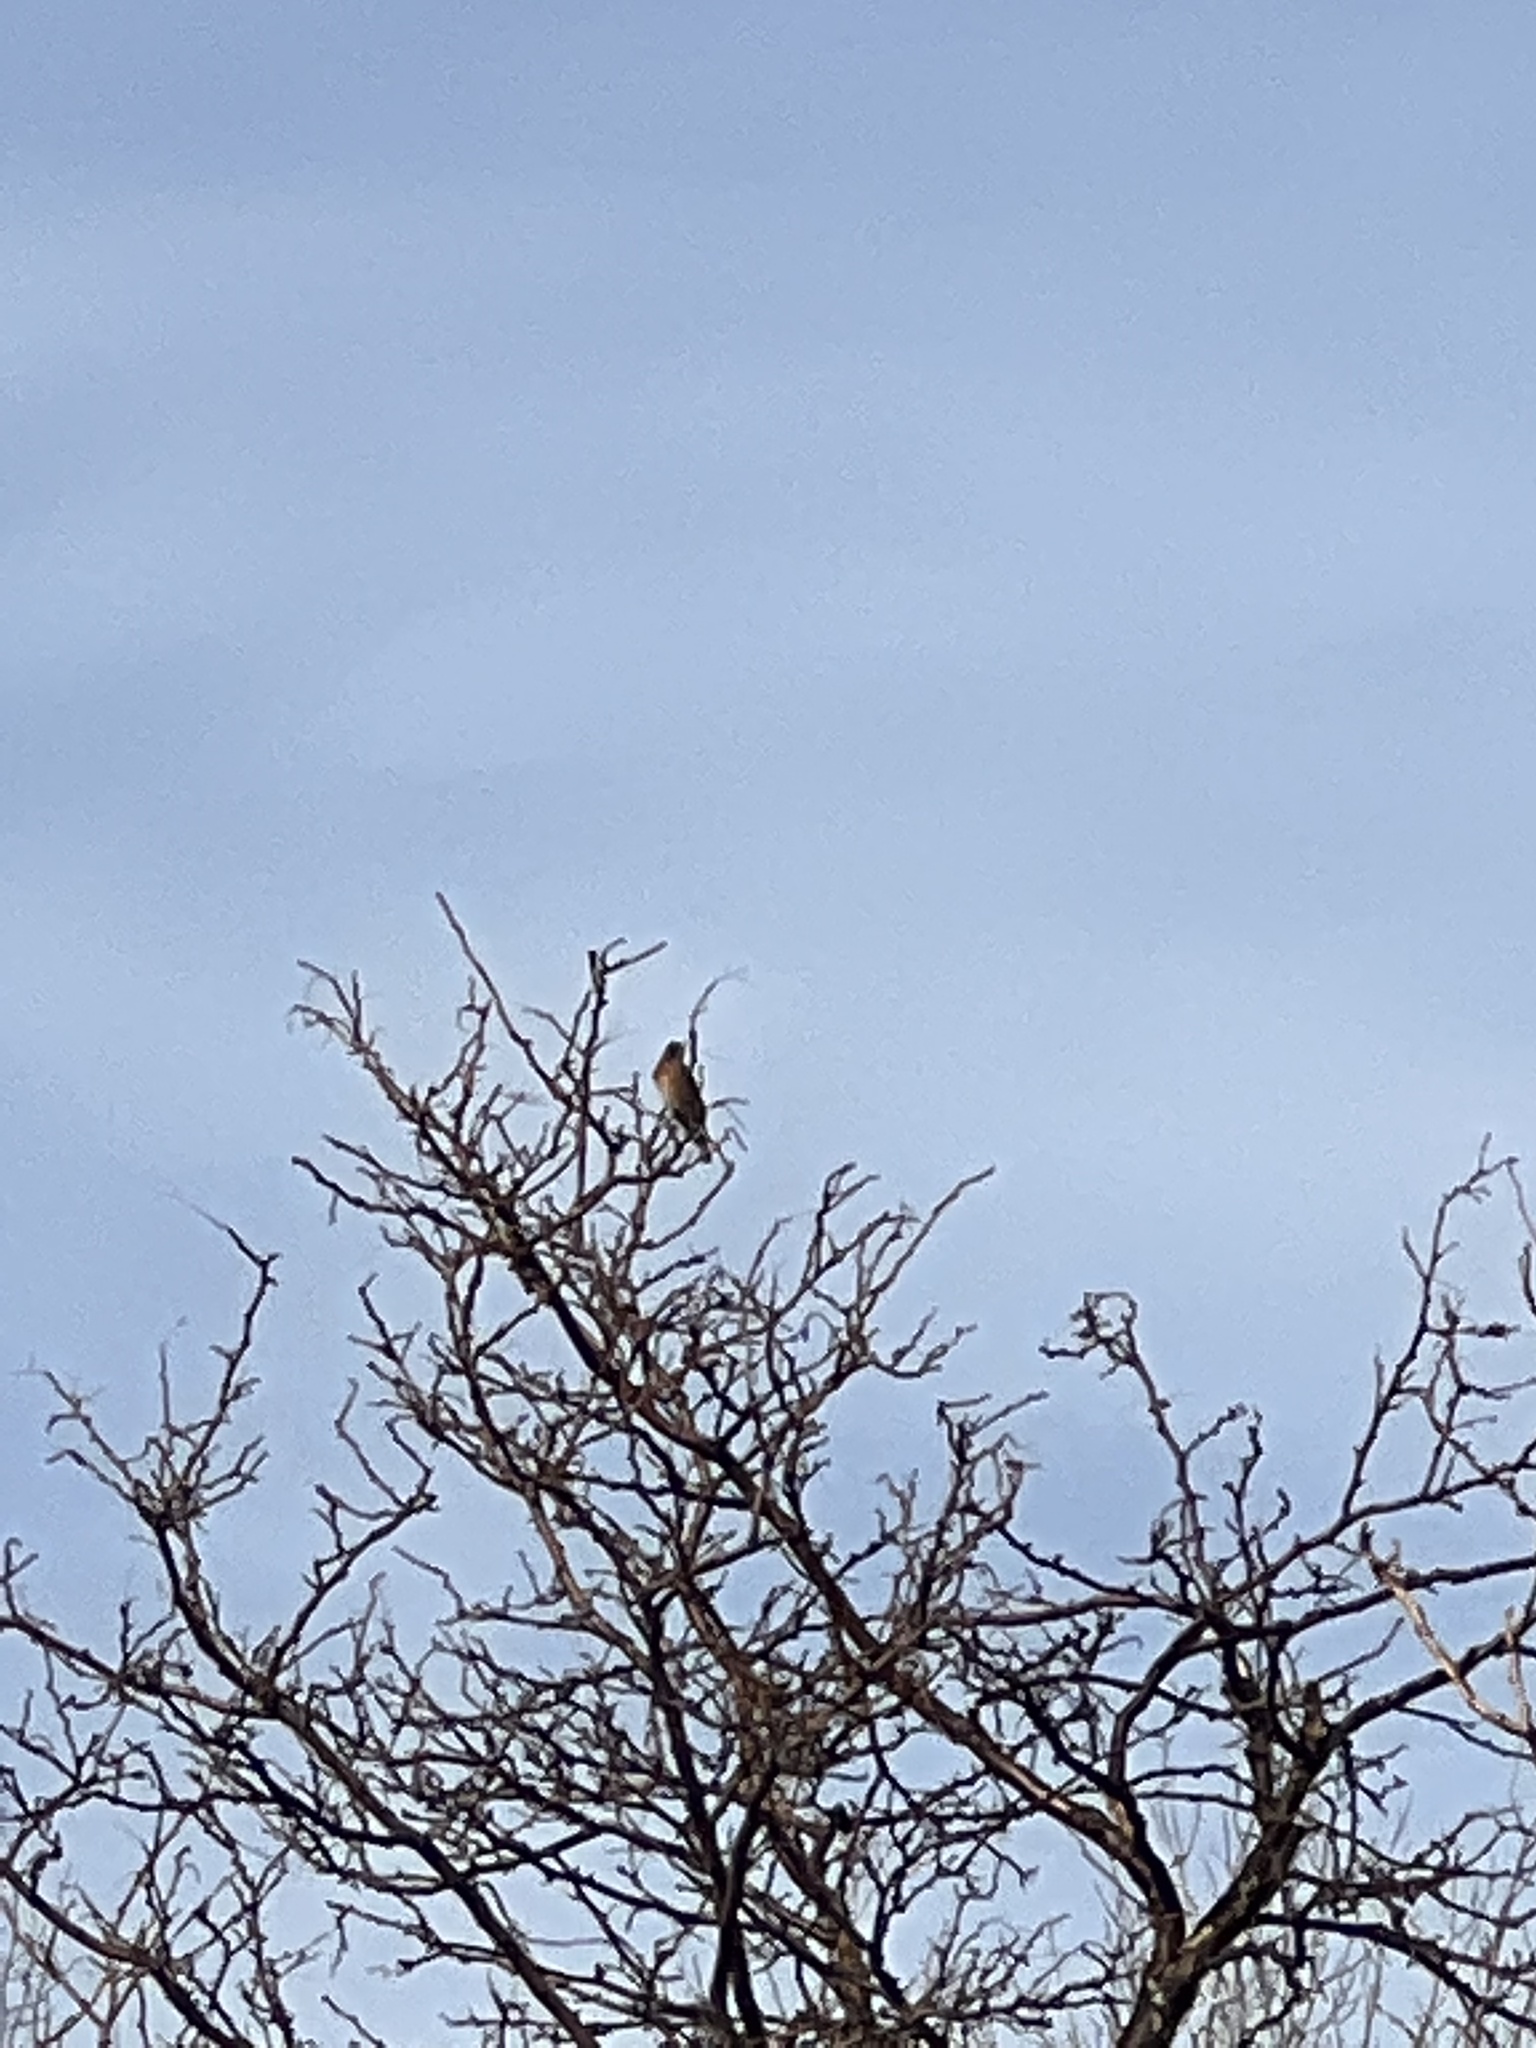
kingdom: Animalia
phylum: Chordata
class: Aves
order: Passeriformes
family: Turdidae
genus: Turdus
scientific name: Turdus migratorius
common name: American robin
